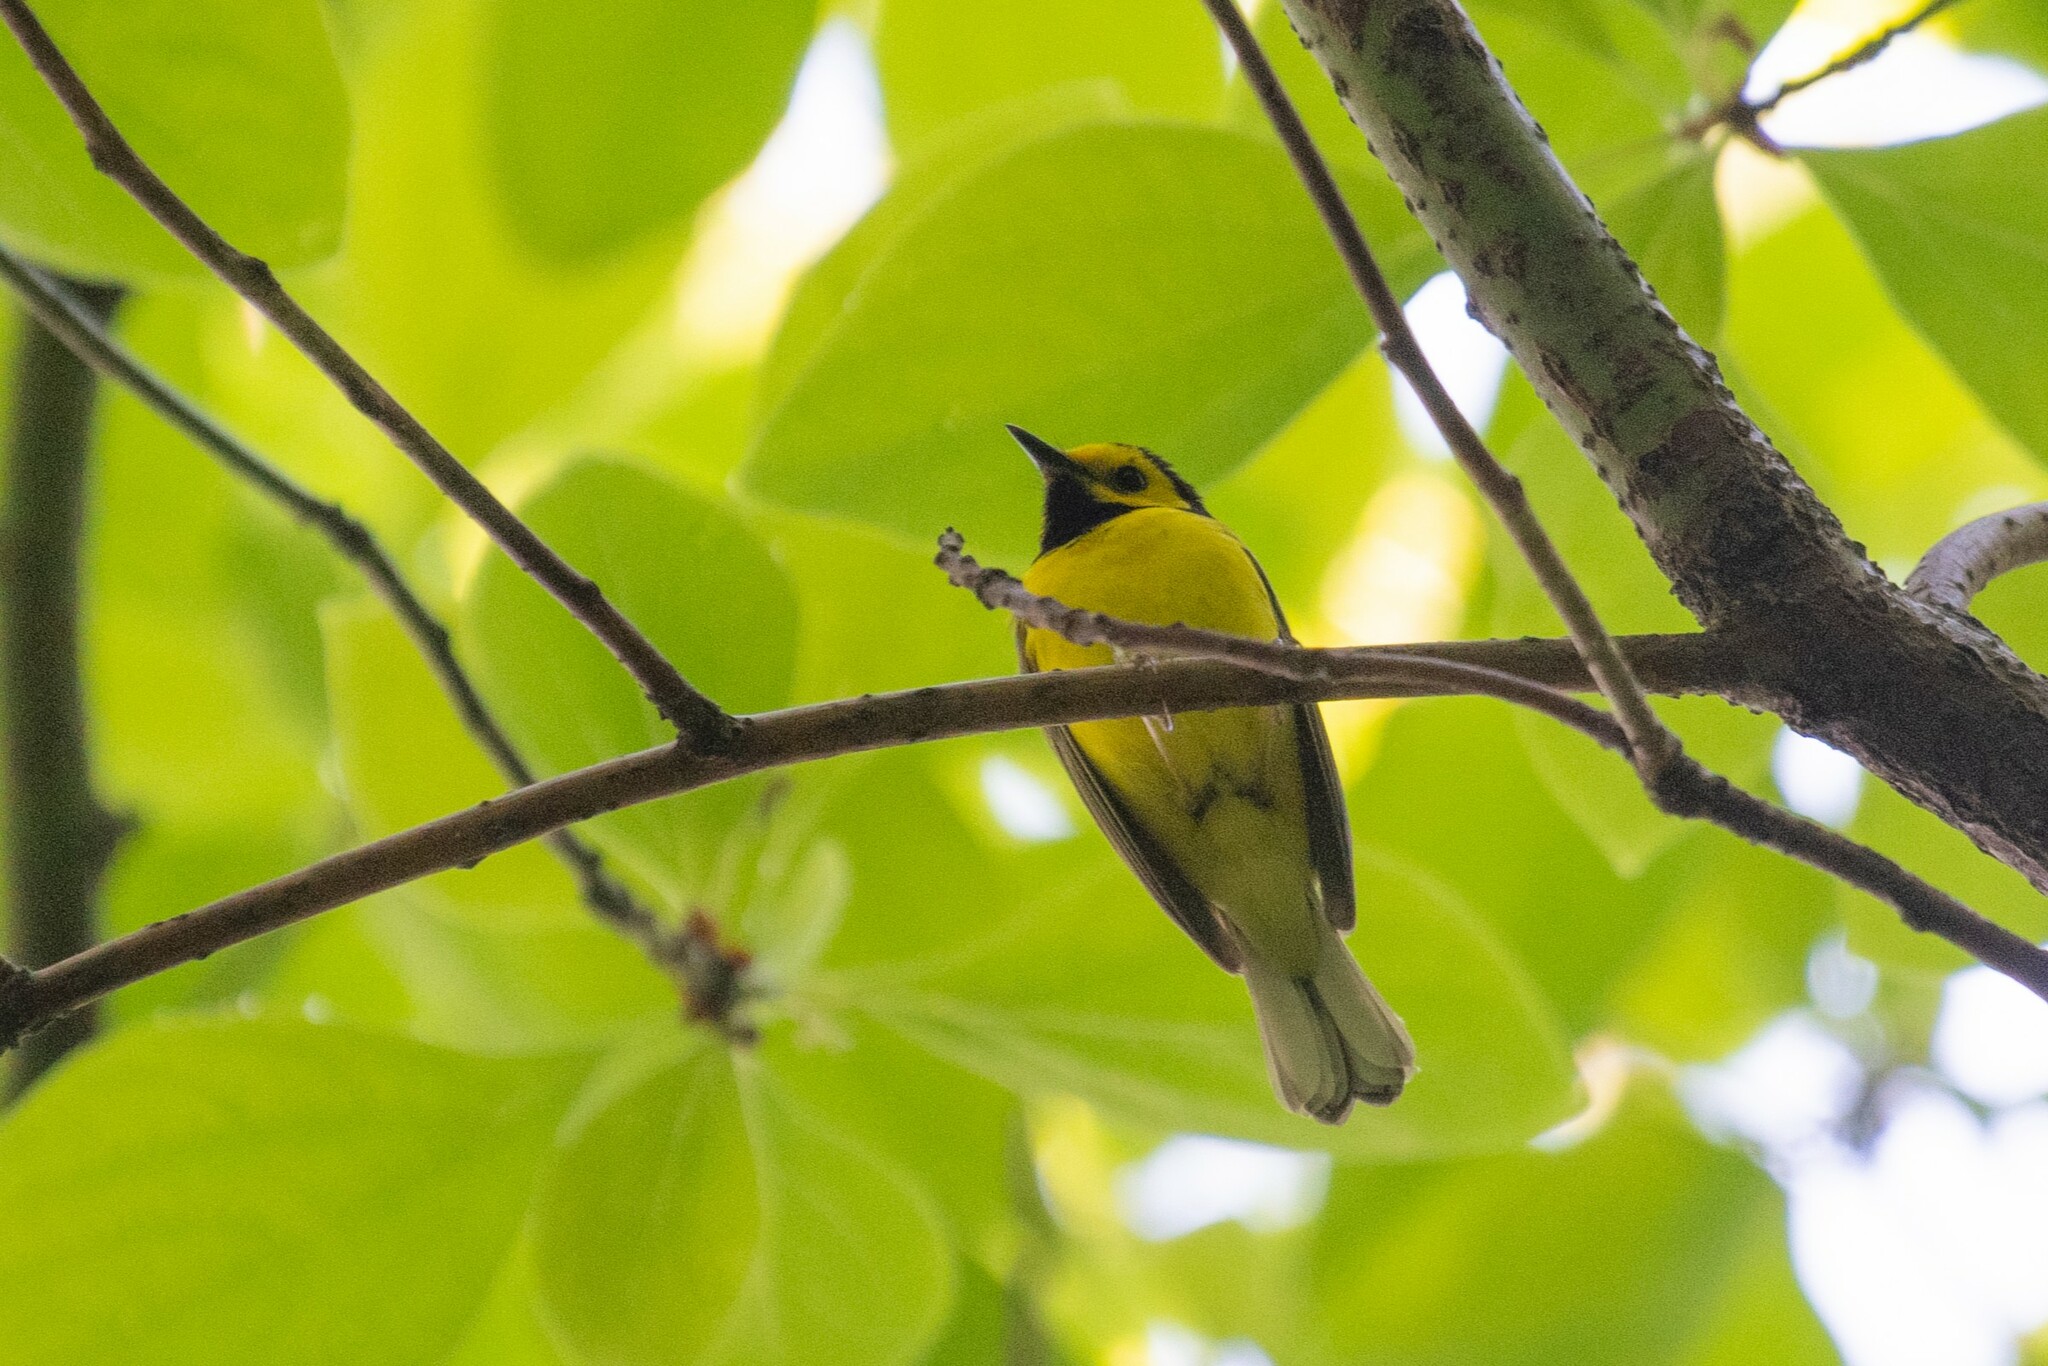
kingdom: Animalia
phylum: Chordata
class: Aves
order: Passeriformes
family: Parulidae
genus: Setophaga
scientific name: Setophaga citrina
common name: Hooded warbler
